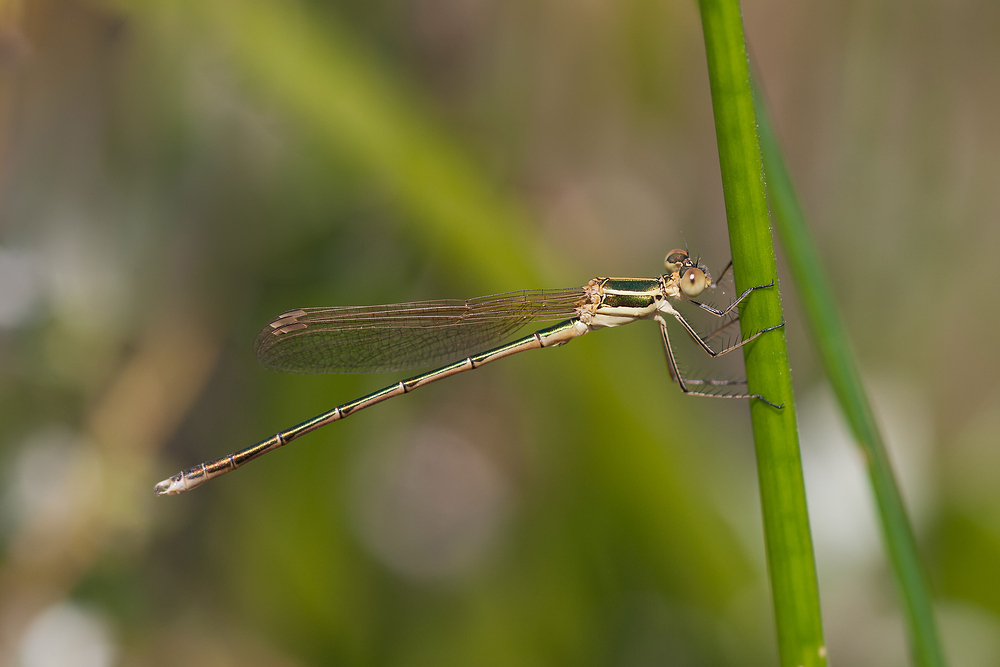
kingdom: Animalia
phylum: Arthropoda
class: Insecta
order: Odonata
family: Lestidae
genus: Lestes
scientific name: Lestes barbarus
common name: Migrant spreadwing
